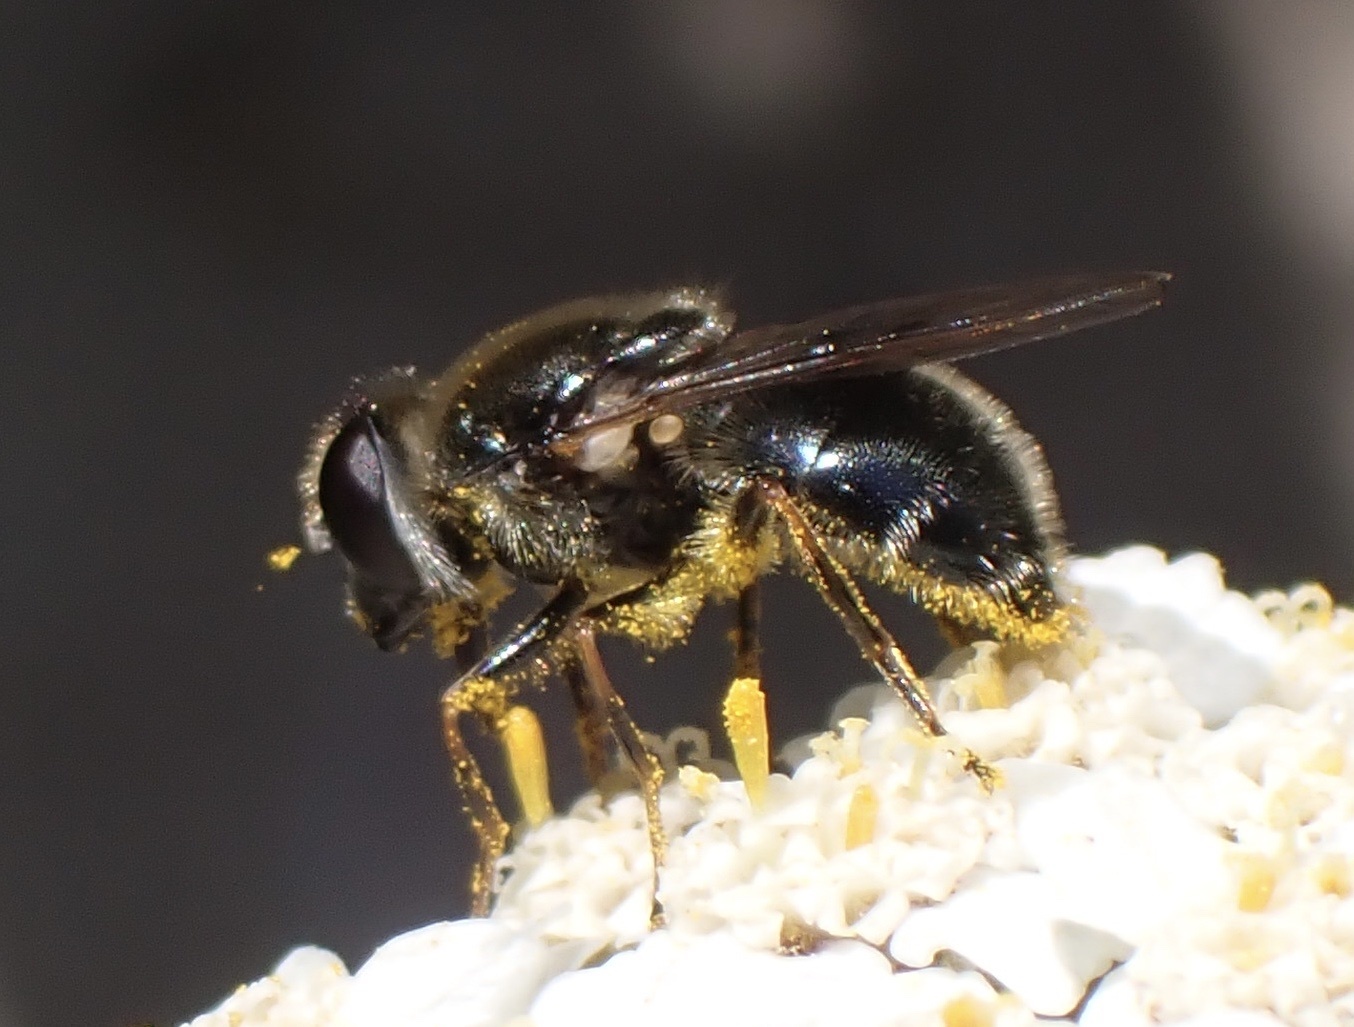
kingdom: Animalia
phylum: Arthropoda
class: Insecta
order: Diptera
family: Syrphidae
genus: Cheilosia
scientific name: Cheilosia caerulescens
